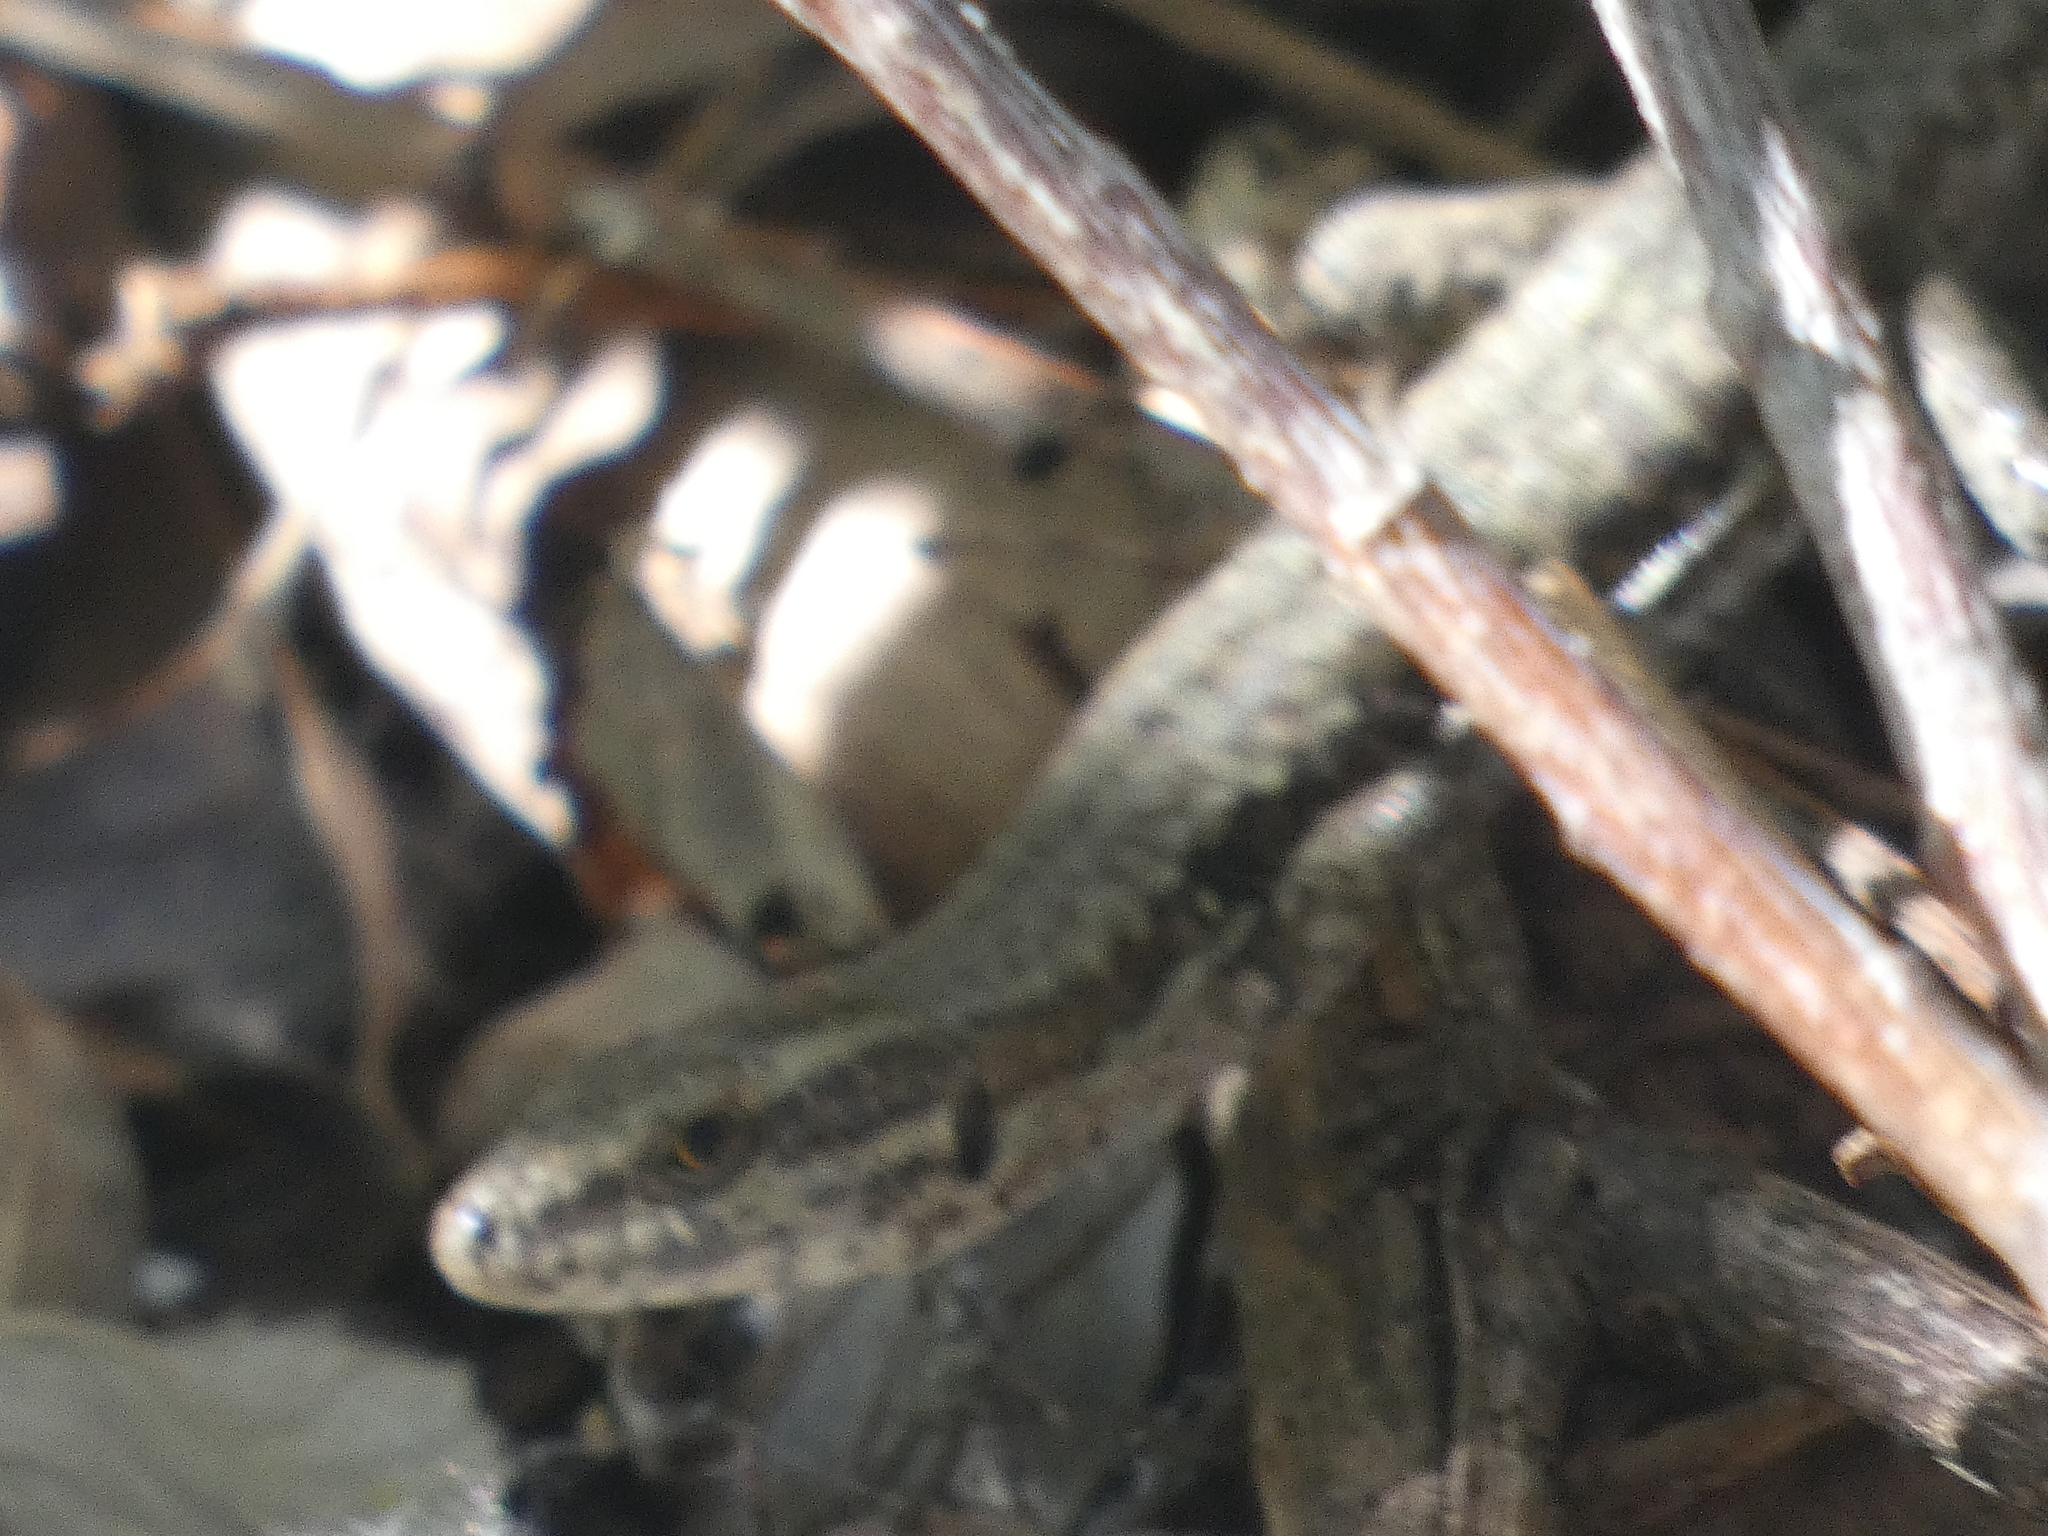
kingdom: Animalia
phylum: Chordata
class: Squamata
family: Lacertidae
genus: Podarcis
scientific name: Podarcis muralis
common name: Common wall lizard
